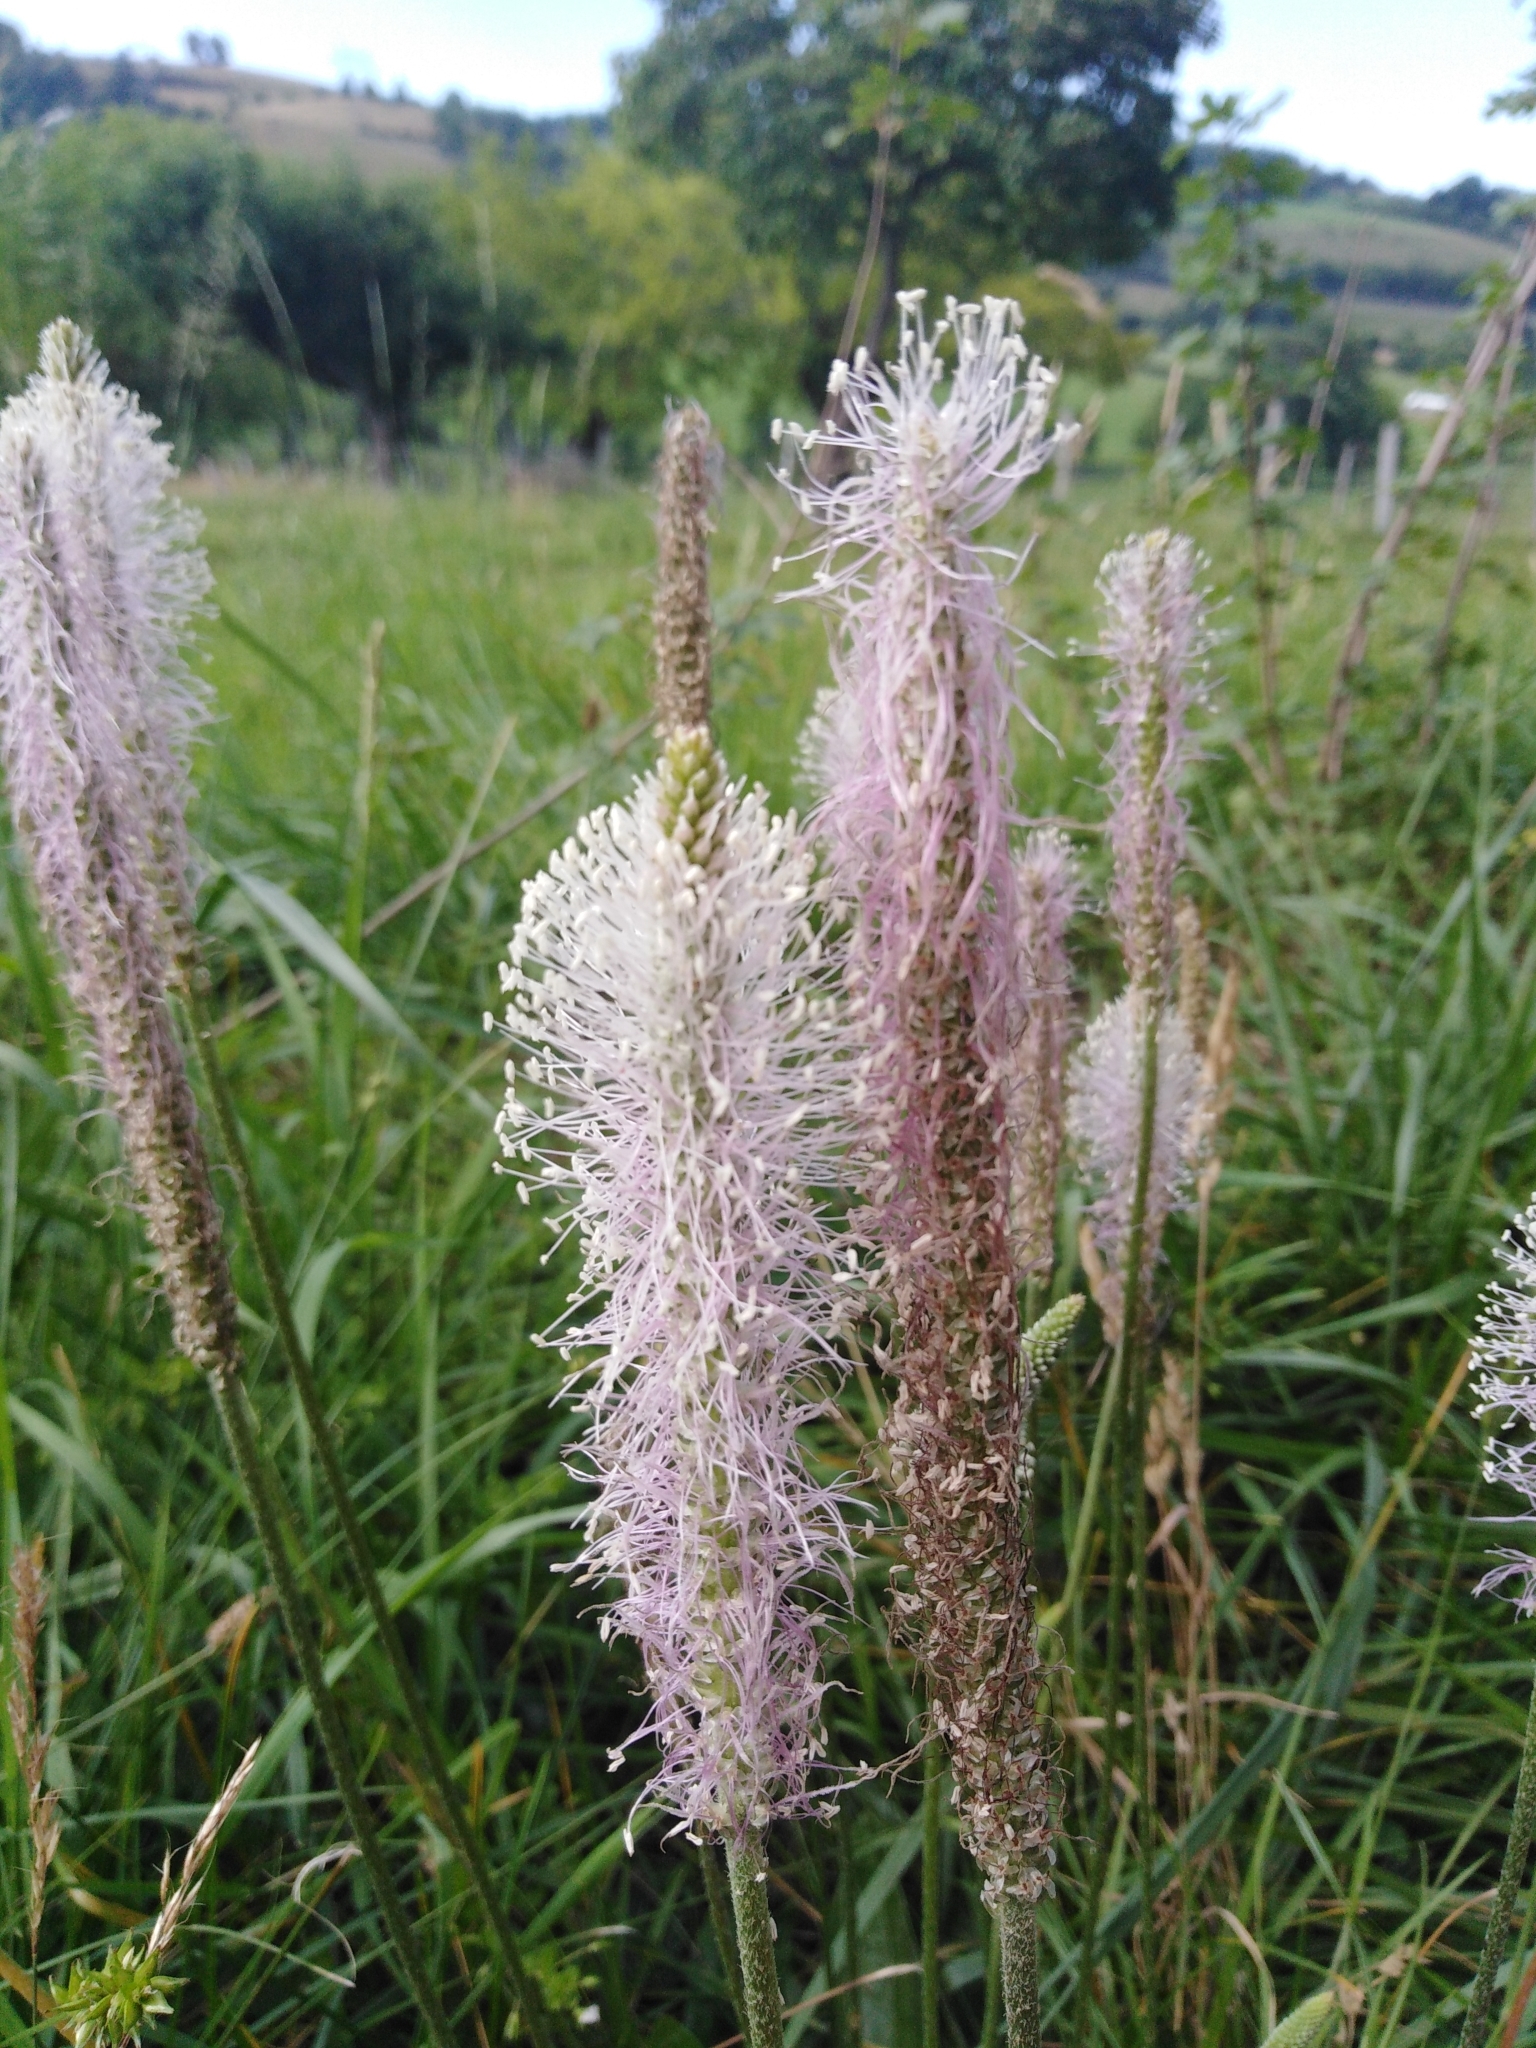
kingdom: Plantae
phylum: Tracheophyta
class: Magnoliopsida
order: Lamiales
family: Plantaginaceae
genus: Plantago
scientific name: Plantago media
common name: Hoary plantain
